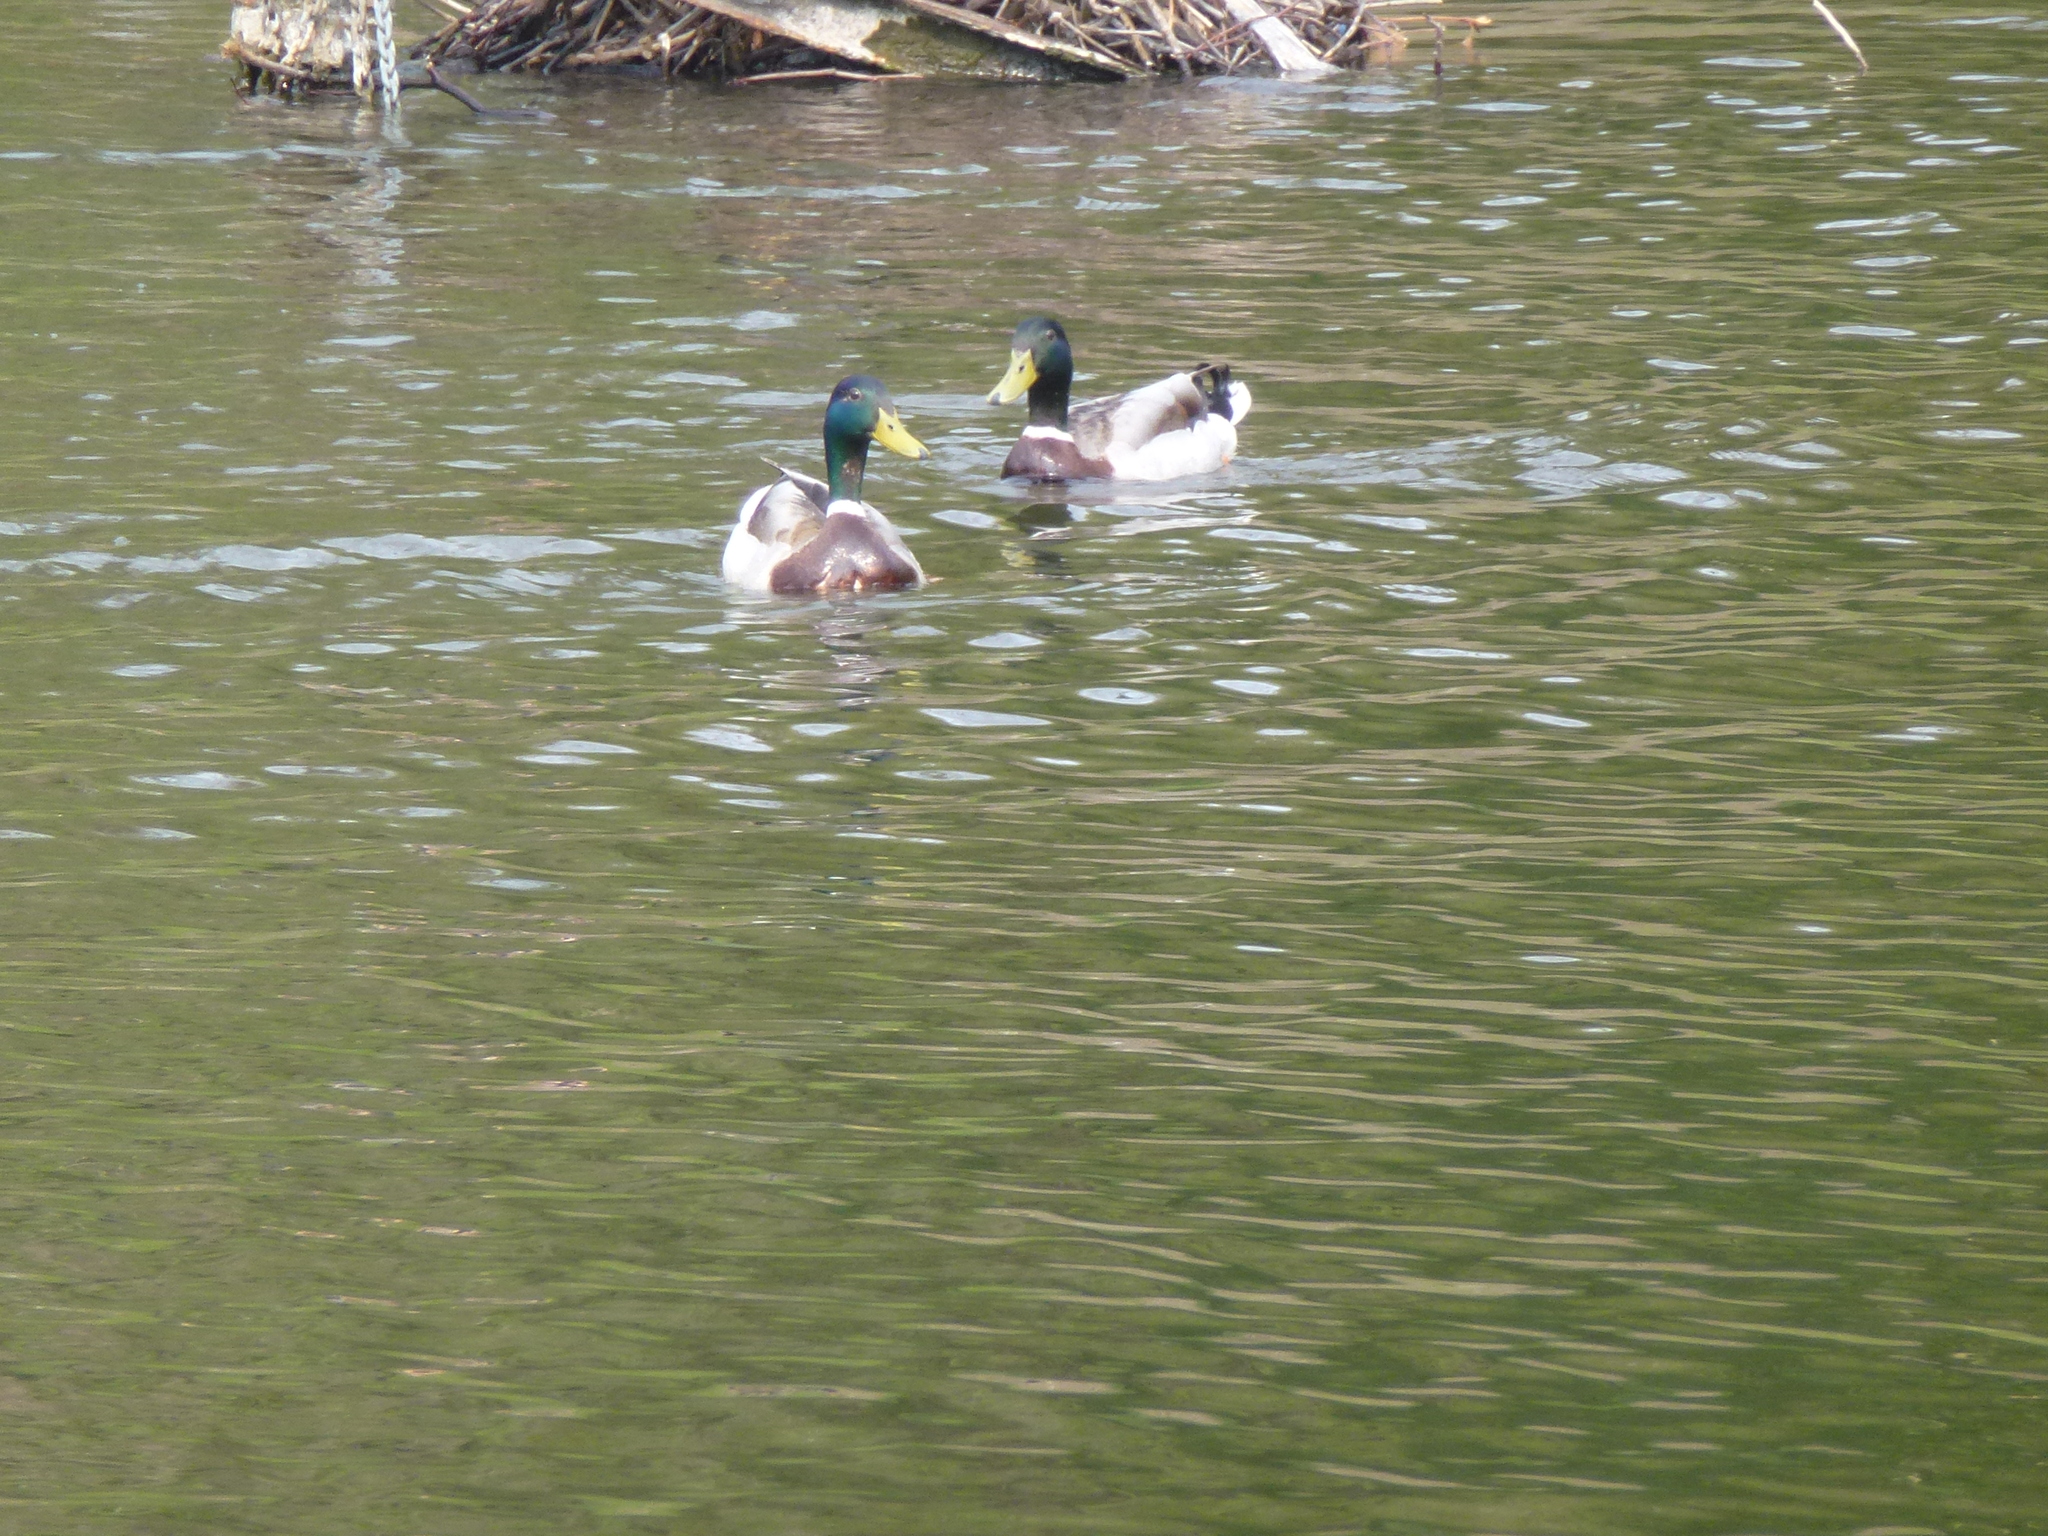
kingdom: Animalia
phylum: Chordata
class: Aves
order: Anseriformes
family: Anatidae
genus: Anas
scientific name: Anas platyrhynchos
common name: Mallard
